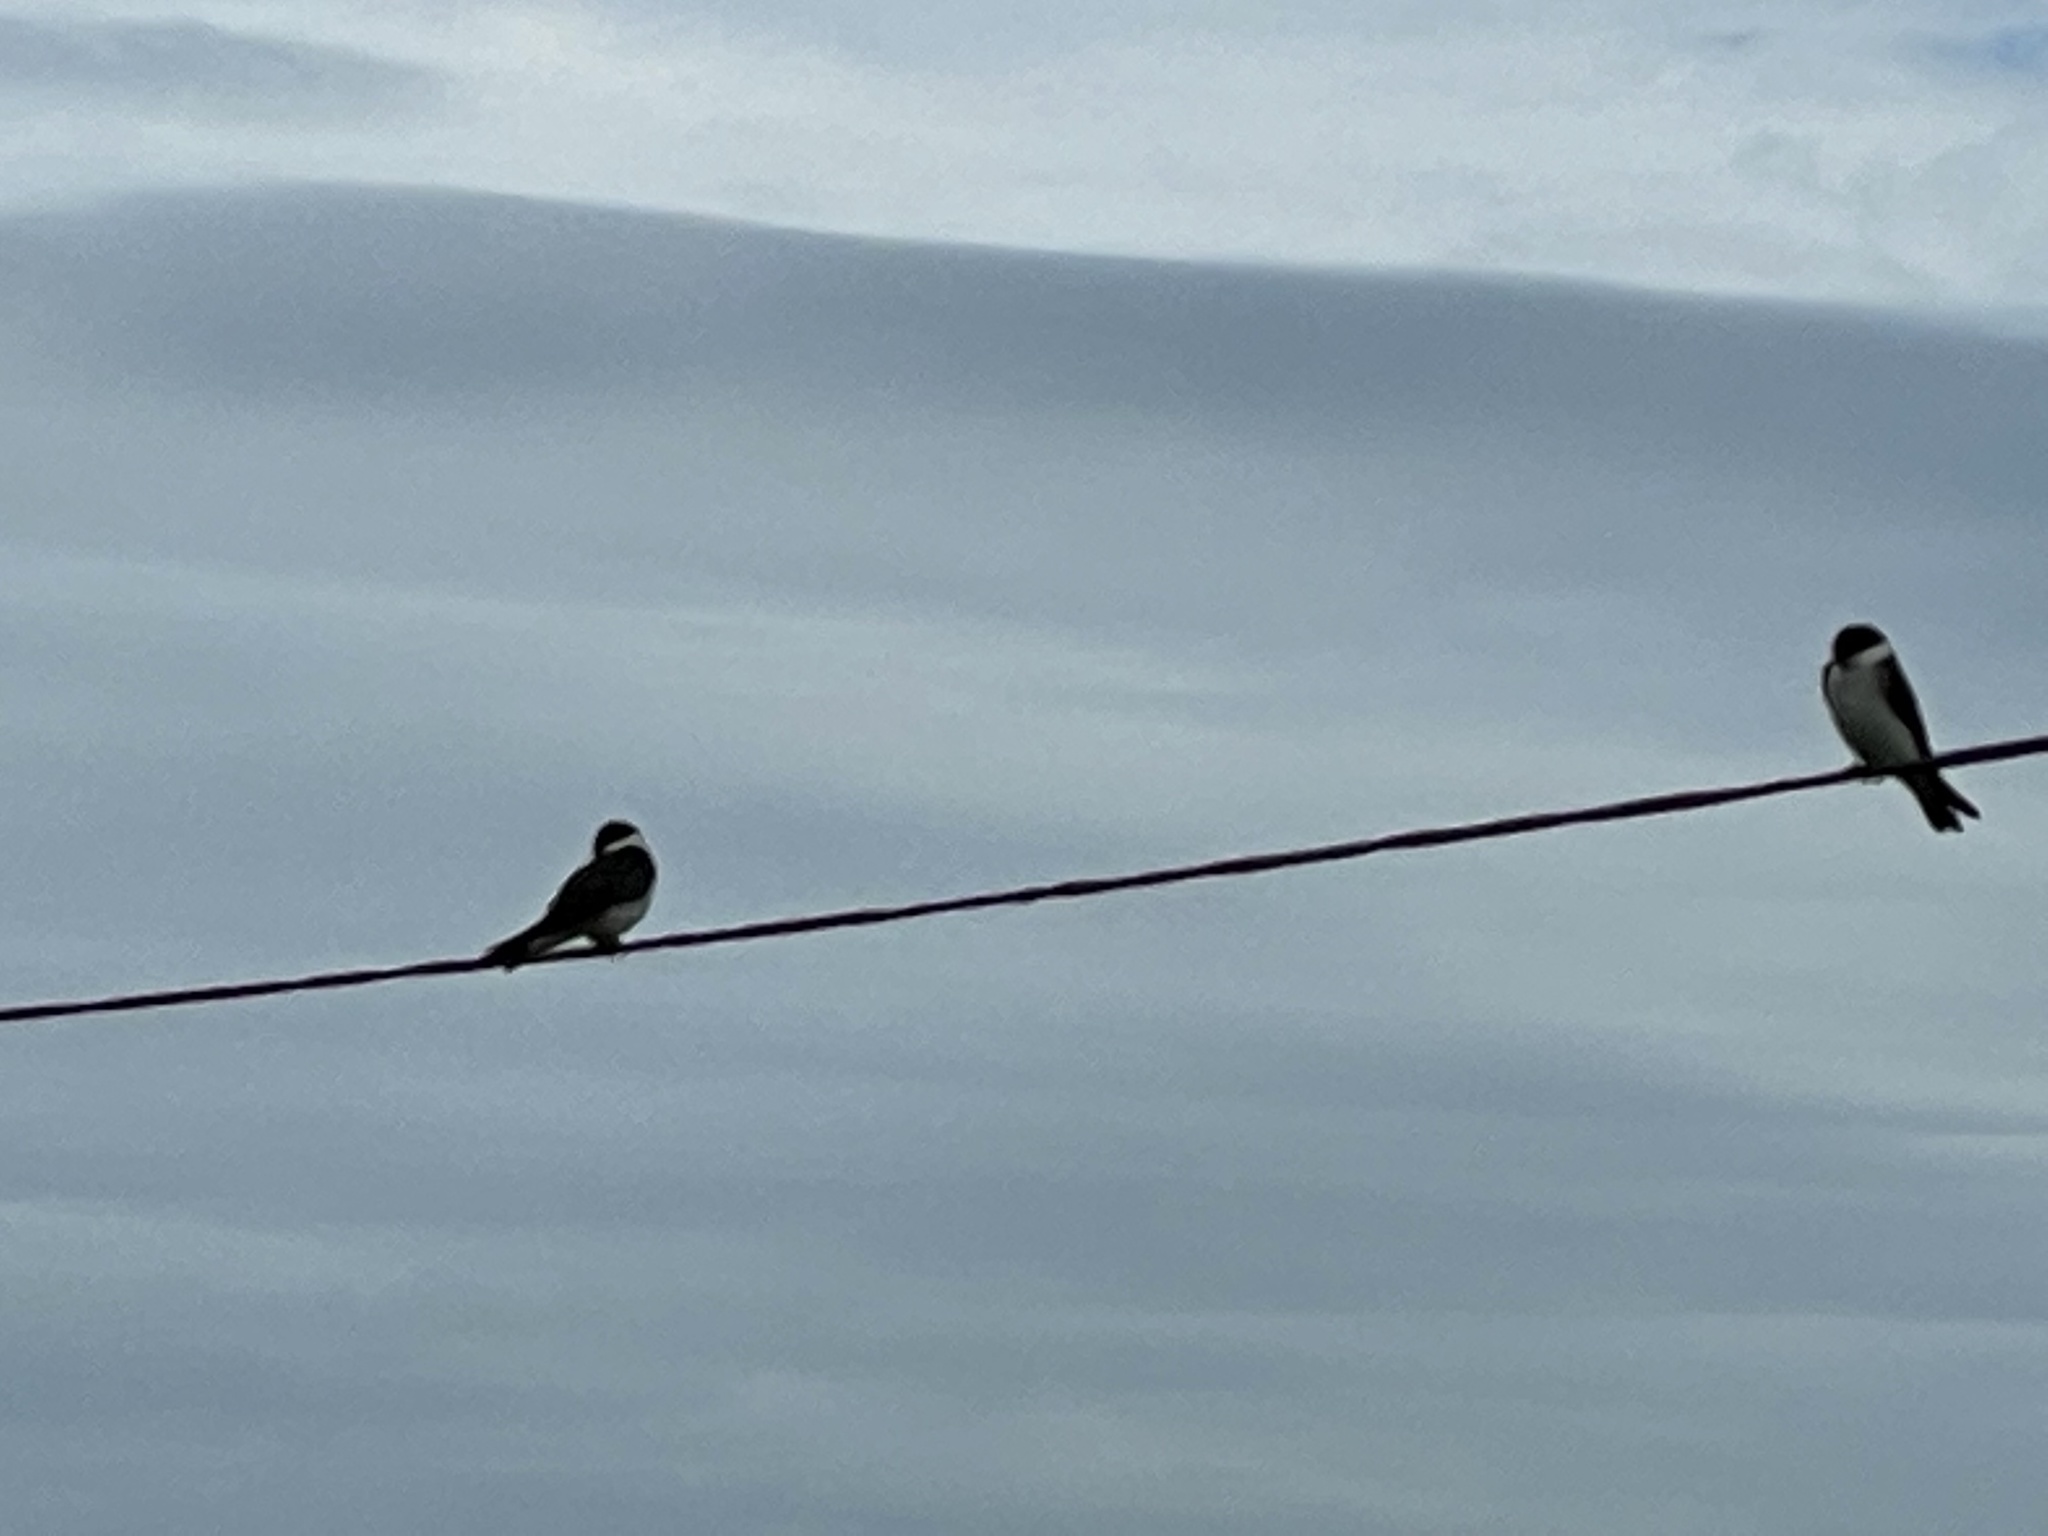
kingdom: Animalia
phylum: Chordata
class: Aves
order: Passeriformes
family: Hirundinidae
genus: Tachycineta
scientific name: Tachycineta leucorrhoa
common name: White-rumped swallow
